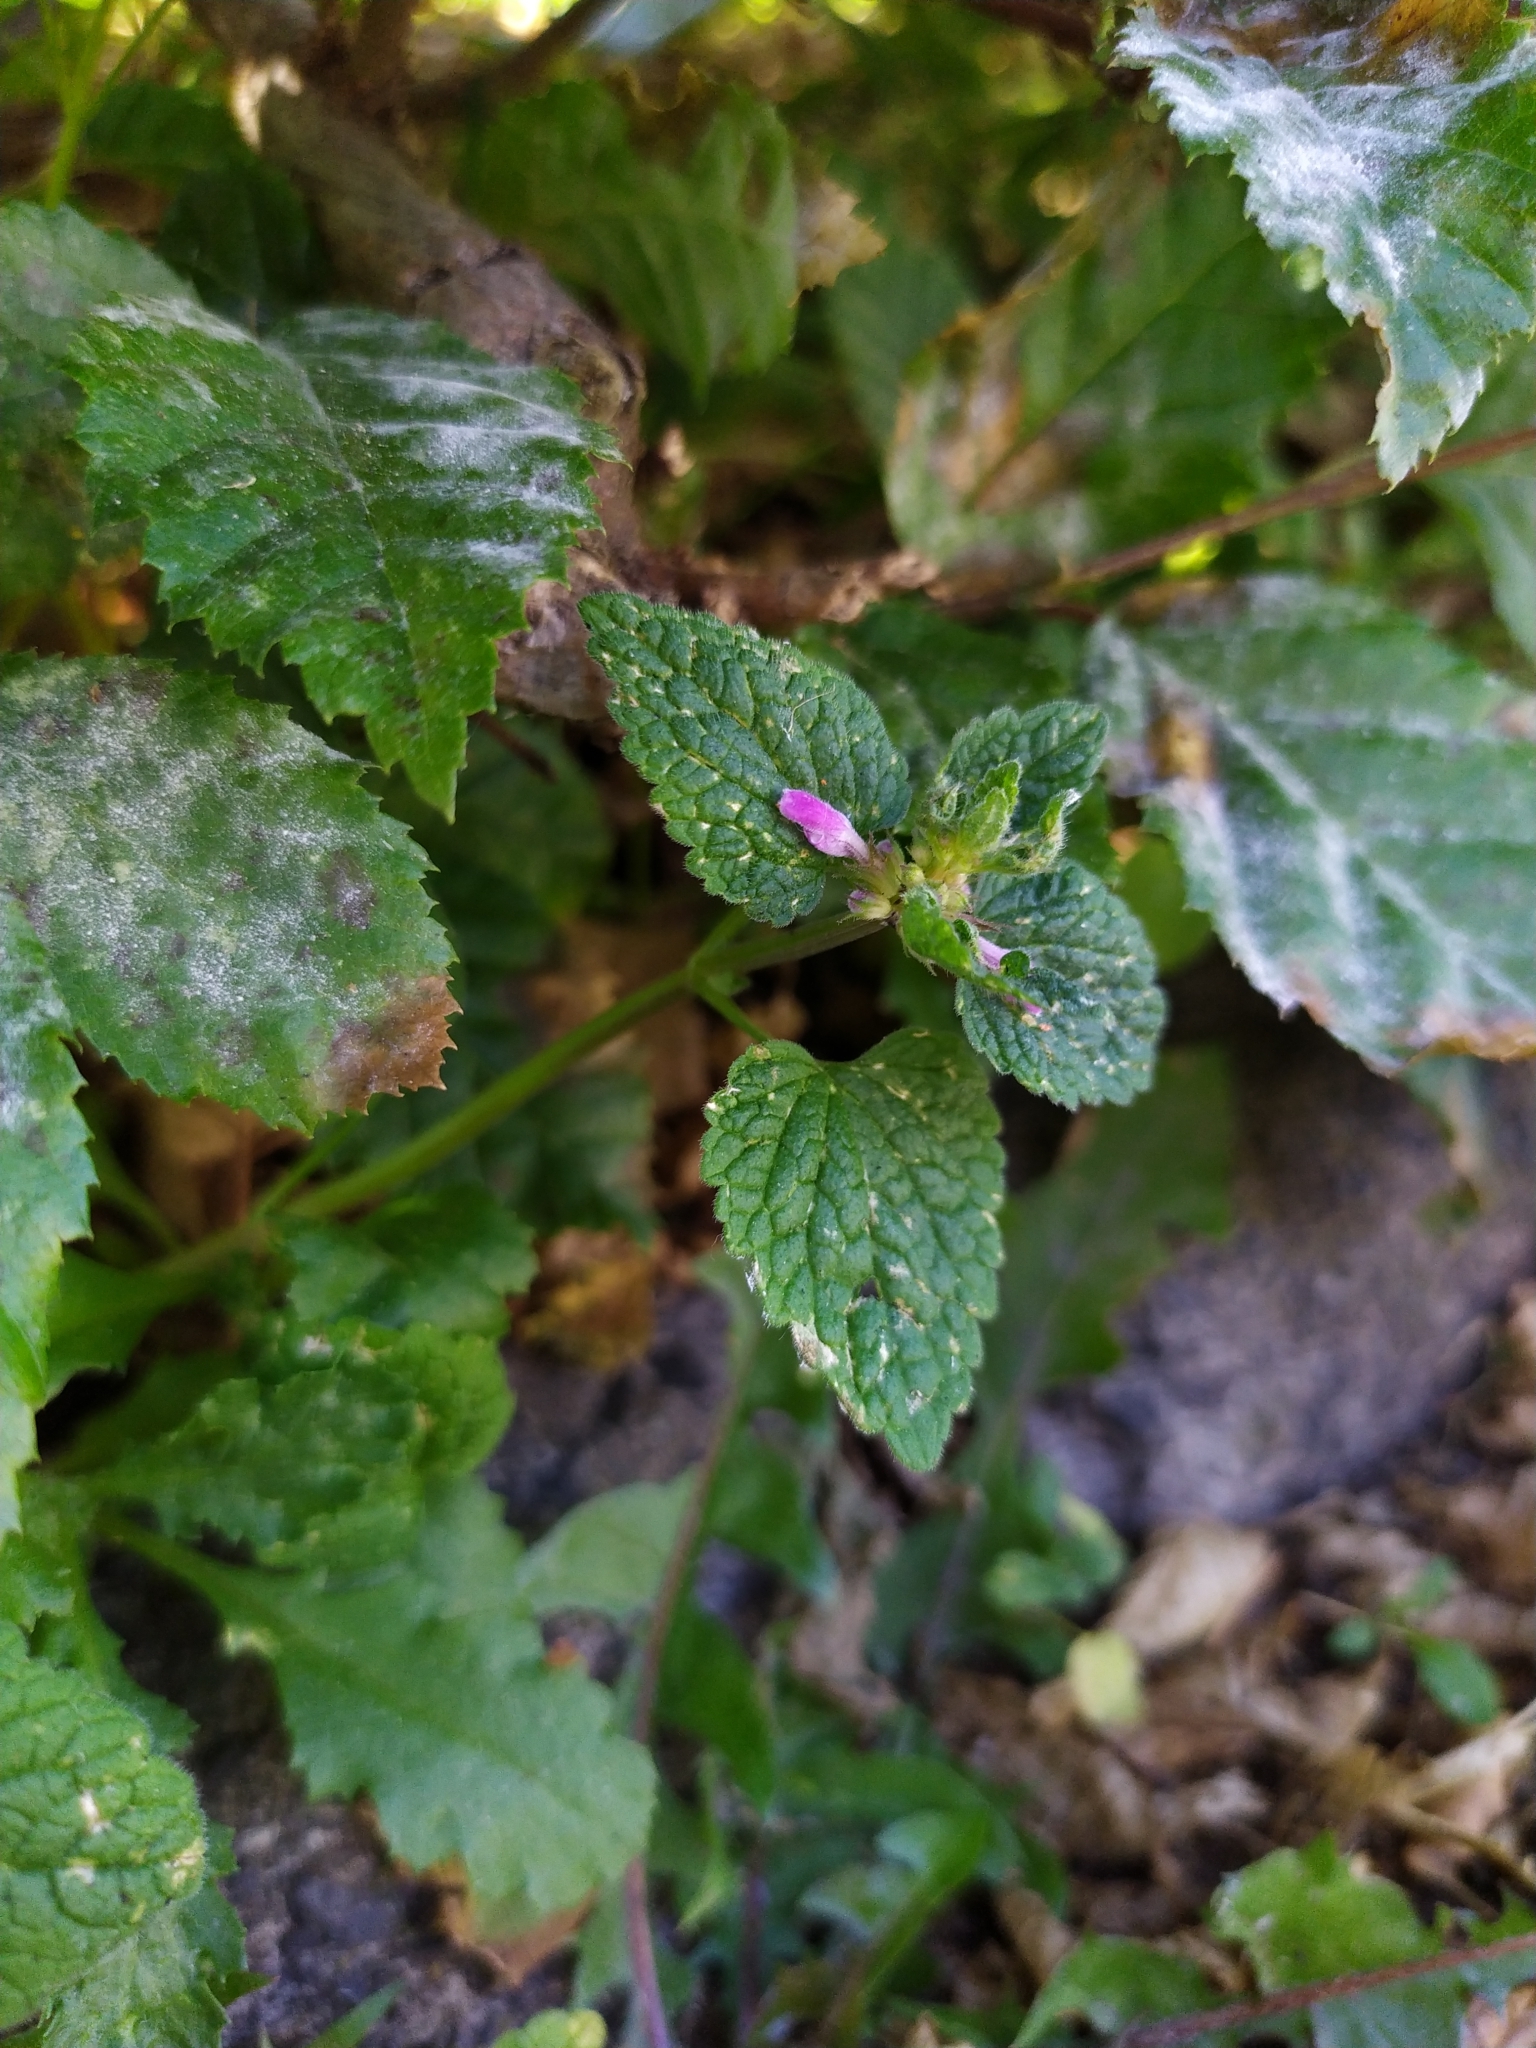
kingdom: Plantae
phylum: Tracheophyta
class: Magnoliopsida
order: Lamiales
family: Lamiaceae
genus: Ballota
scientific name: Ballota nigra
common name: Black horehound
